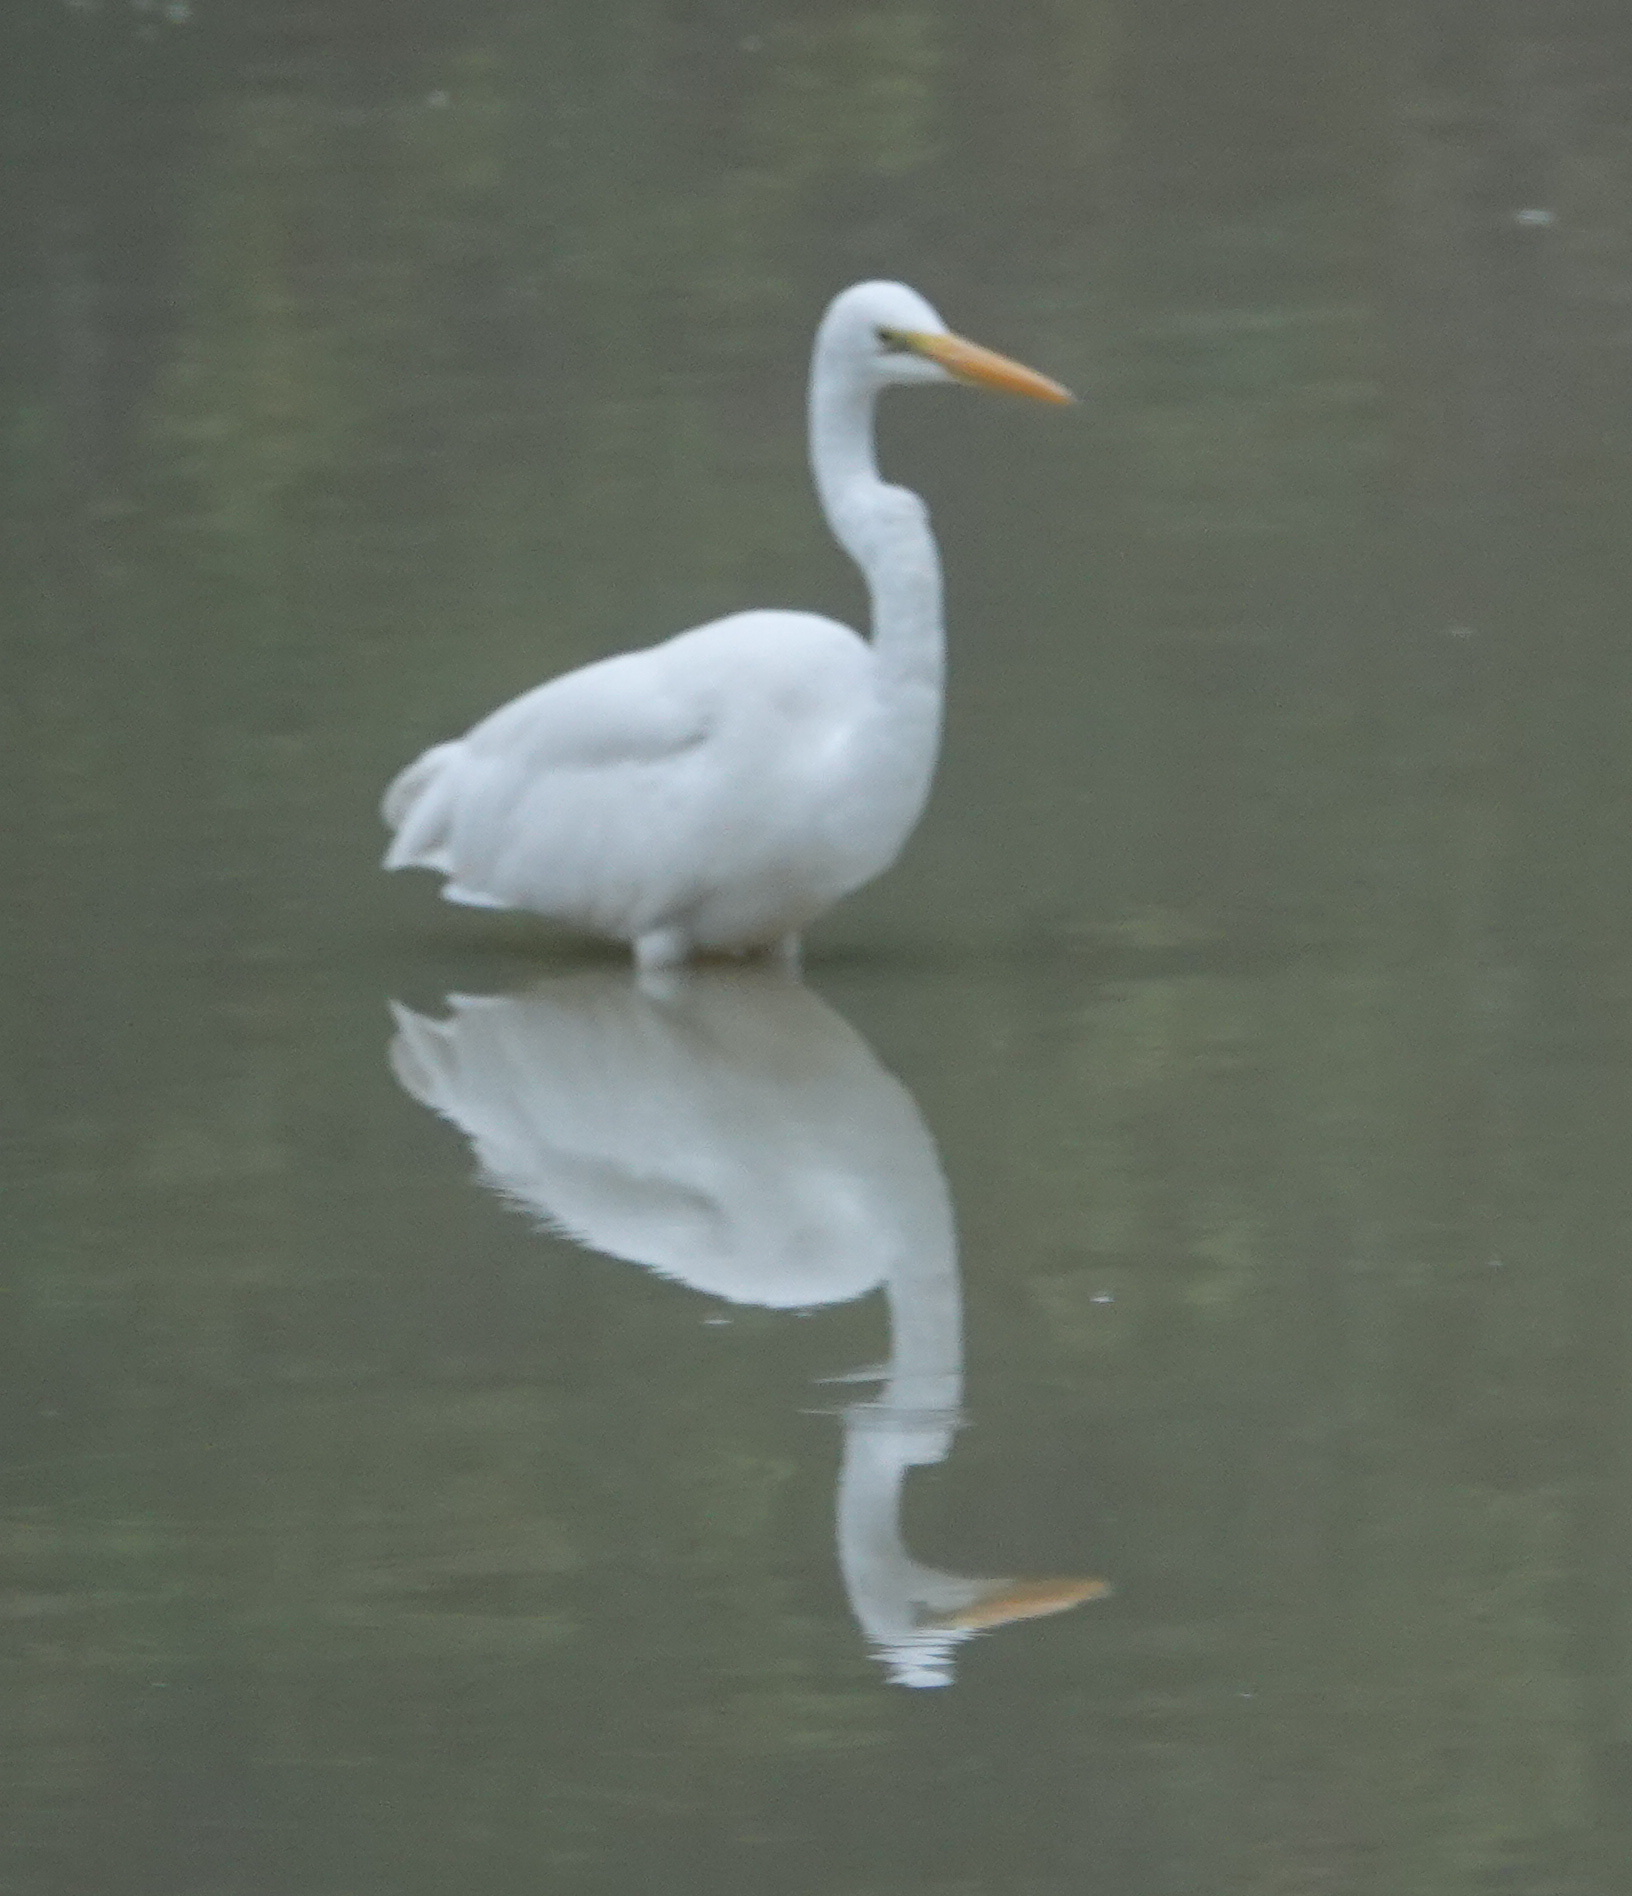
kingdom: Animalia
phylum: Chordata
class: Aves
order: Pelecaniformes
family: Ardeidae
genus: Egretta
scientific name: Egretta intermedia
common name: Intermediate egret
